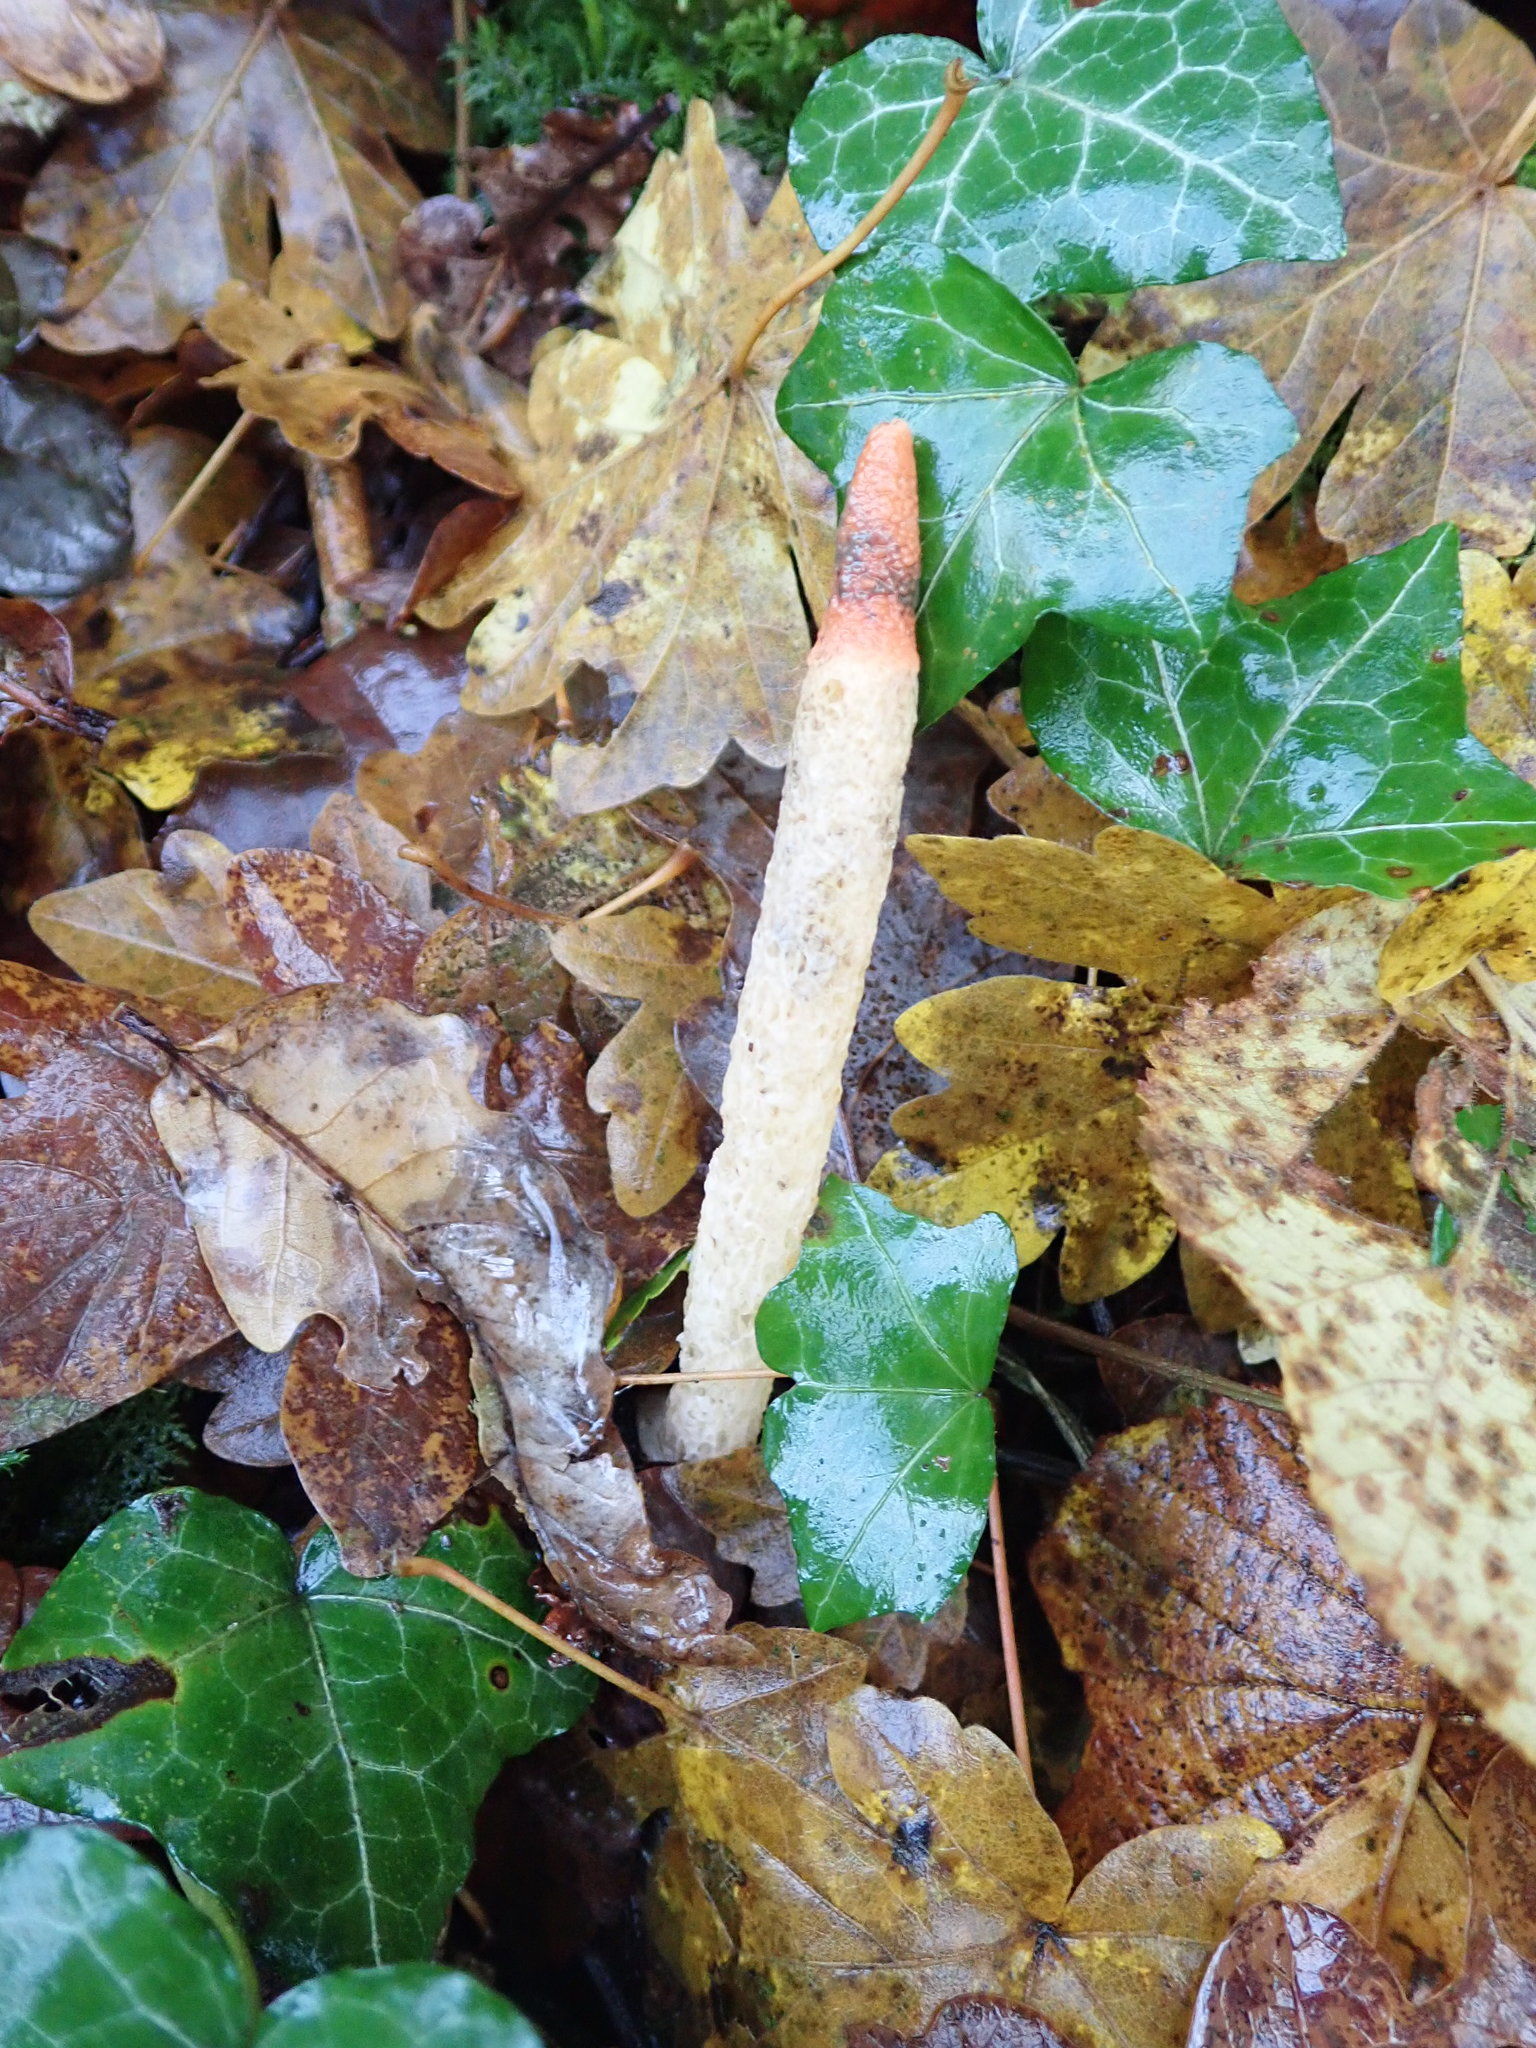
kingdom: Fungi
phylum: Basidiomycota
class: Agaricomycetes
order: Phallales
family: Phallaceae
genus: Mutinus
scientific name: Mutinus caninus
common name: Dog stinkhorn
